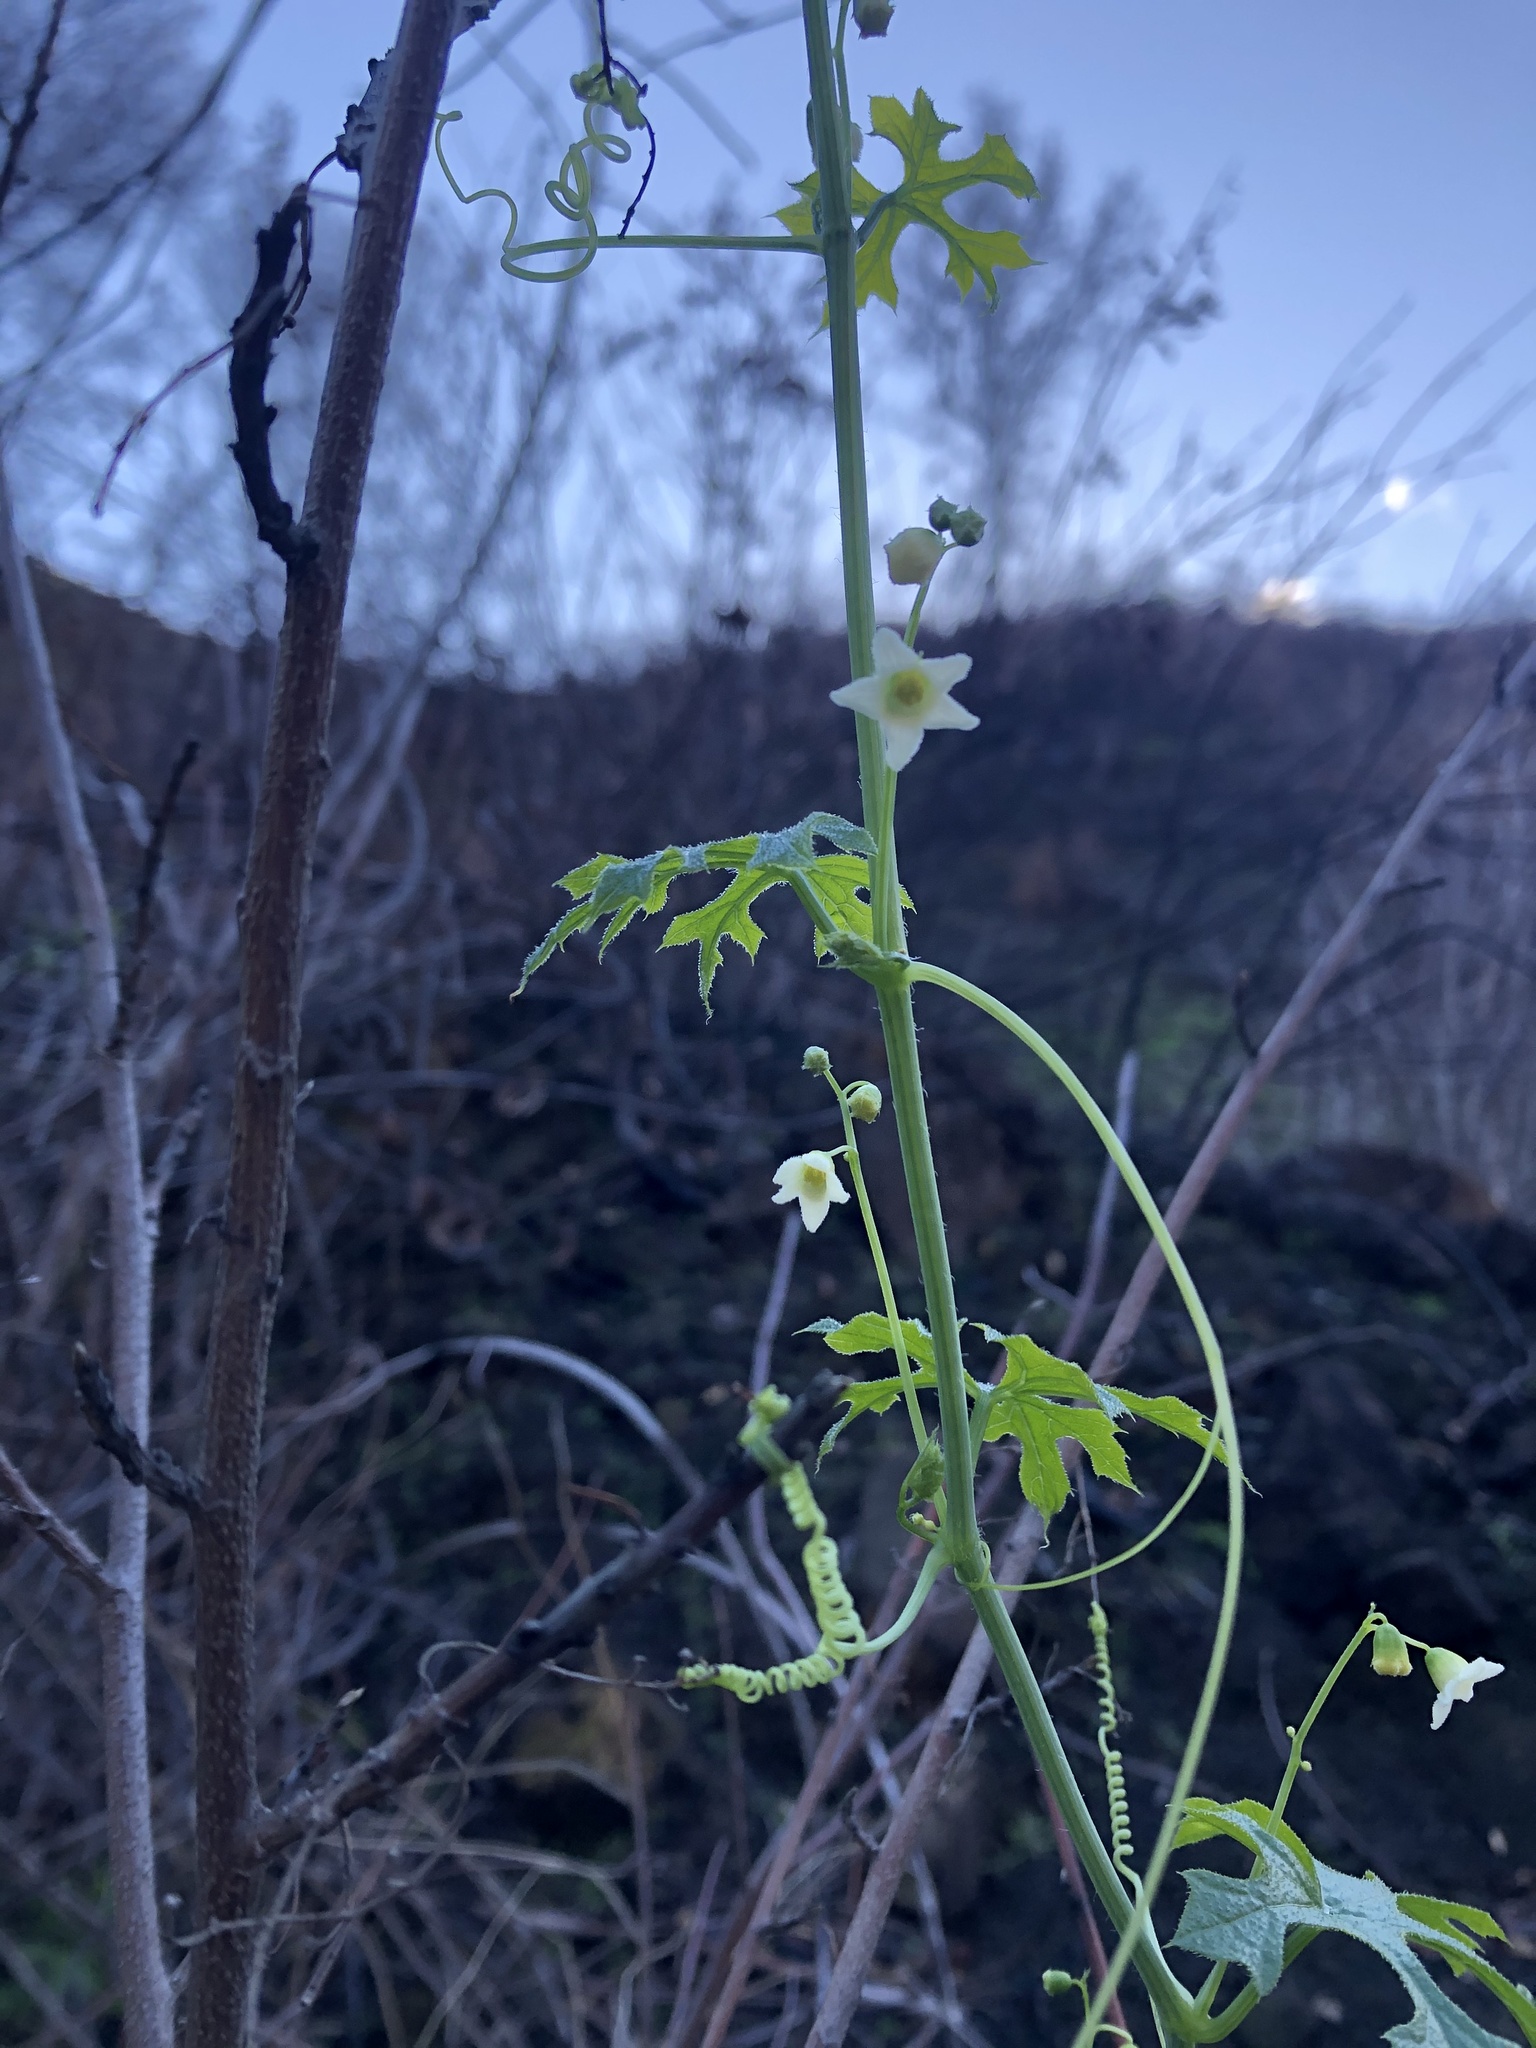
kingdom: Plantae
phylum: Tracheophyta
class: Magnoliopsida
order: Cucurbitales
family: Cucurbitaceae
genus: Marah
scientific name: Marah fabacea
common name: California manroot
